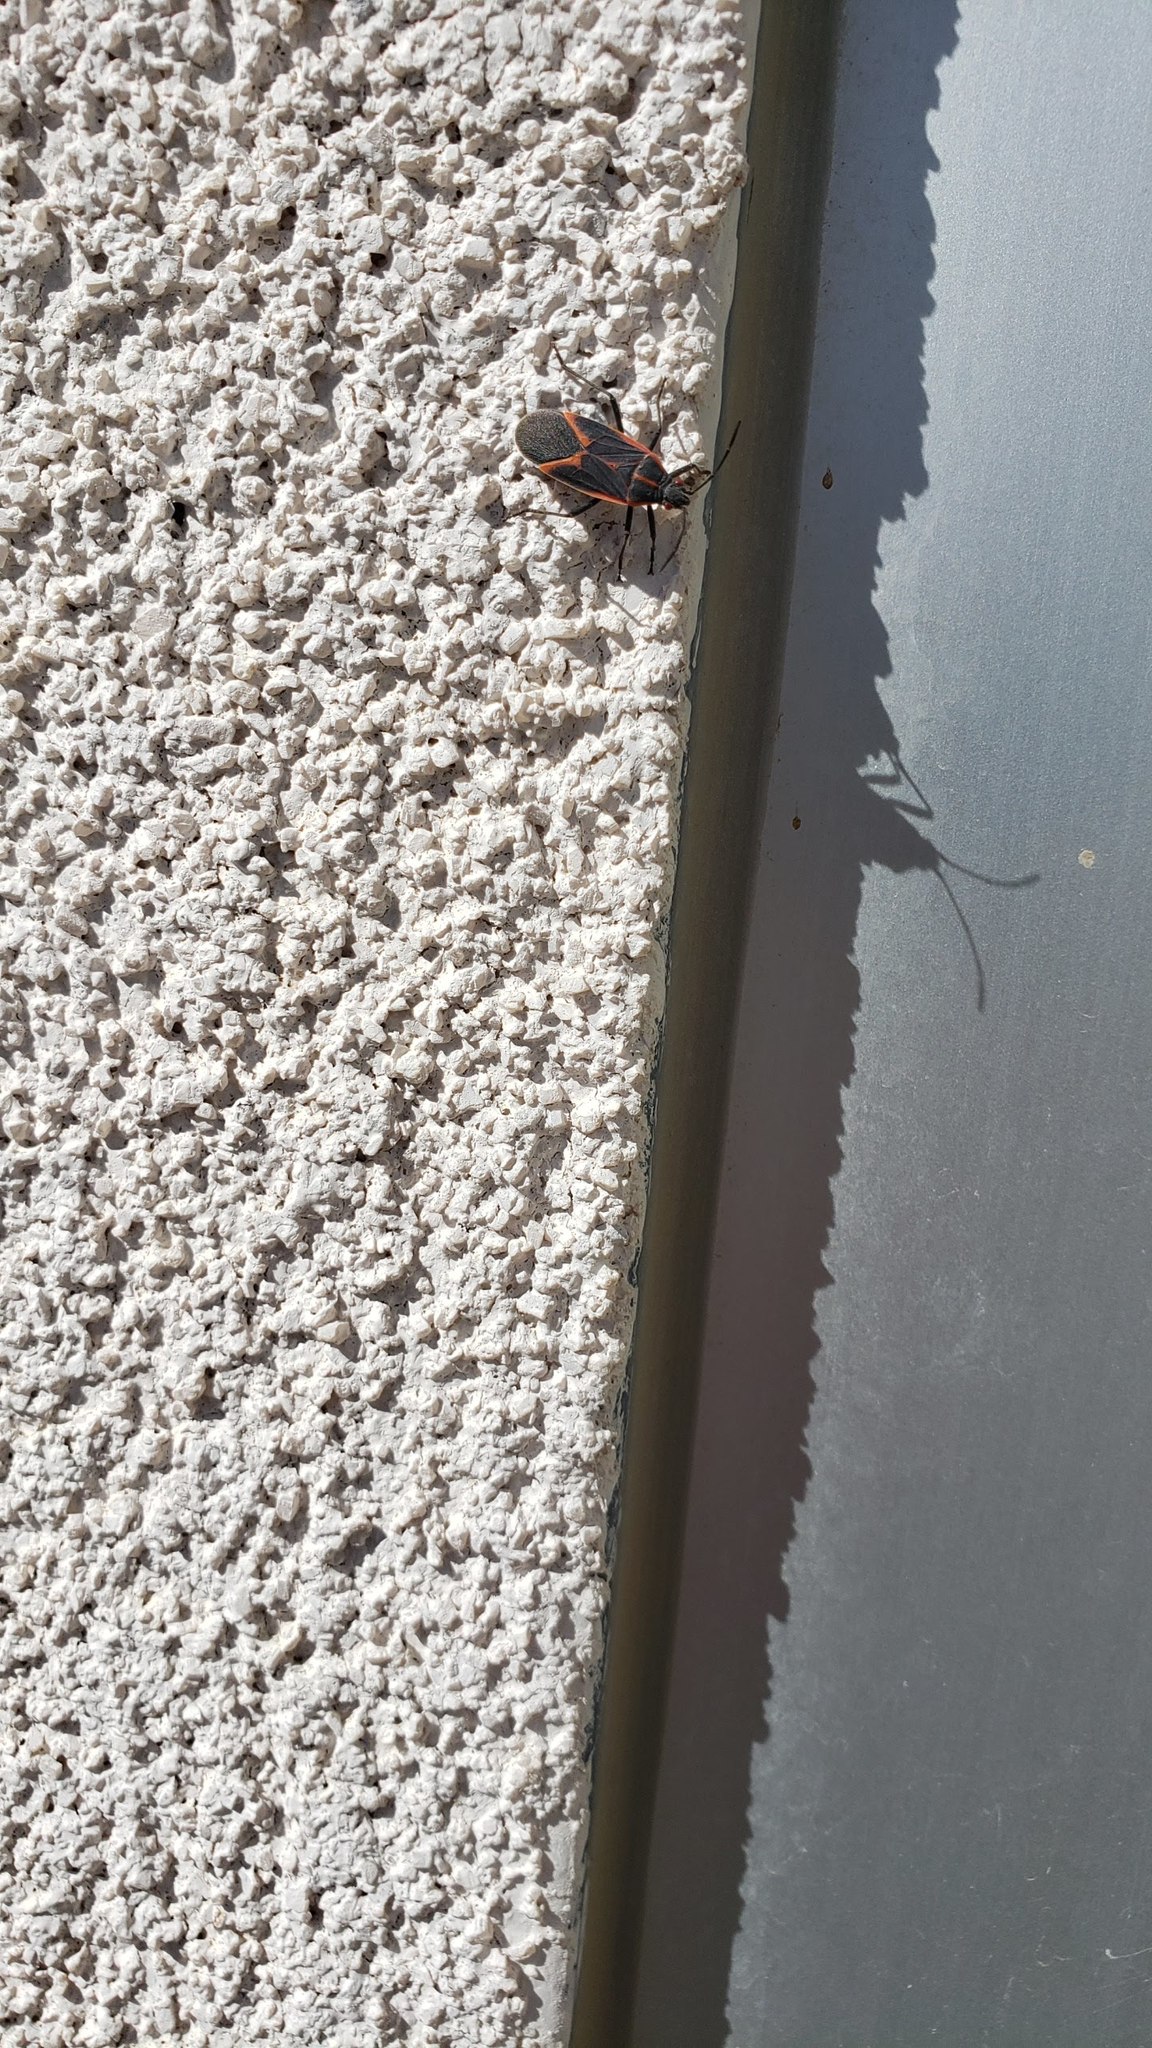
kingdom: Animalia
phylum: Arthropoda
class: Insecta
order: Hemiptera
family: Rhopalidae
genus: Boisea
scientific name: Boisea trivittata
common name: Boxelder bug
